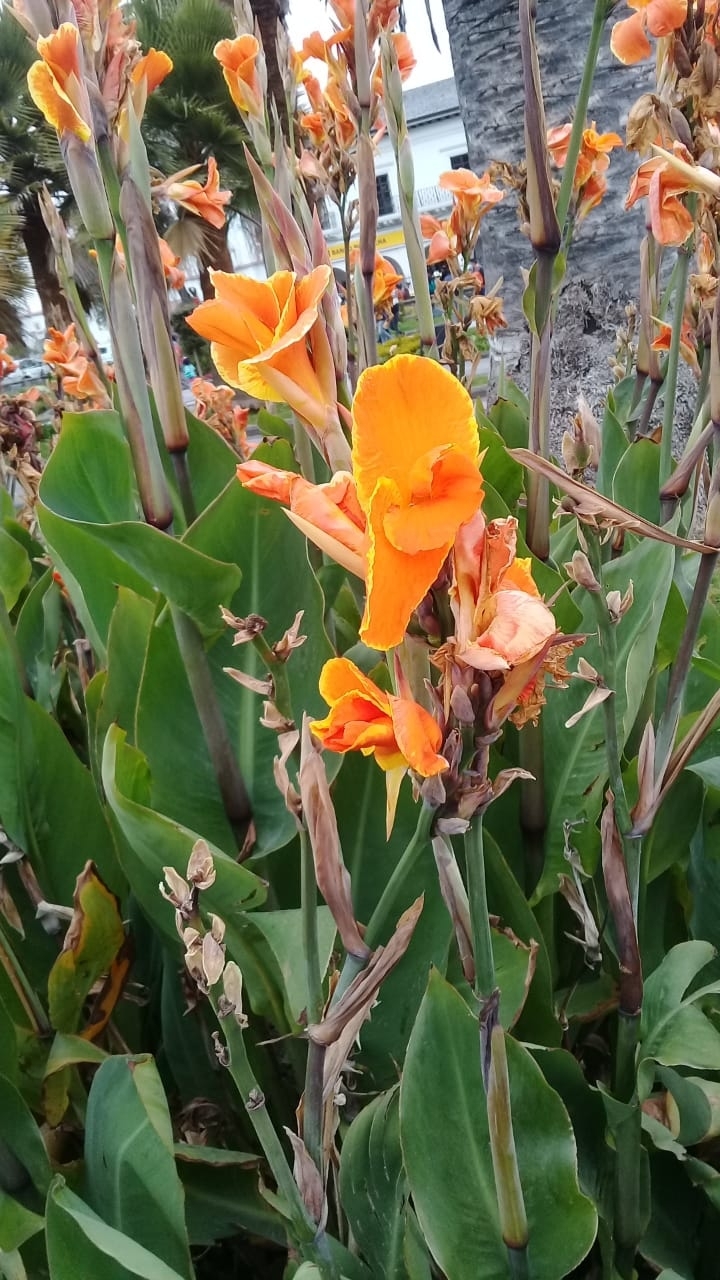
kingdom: Plantae
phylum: Tracheophyta
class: Liliopsida
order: Zingiberales
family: Cannaceae
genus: Canna
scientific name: Canna hybrida
